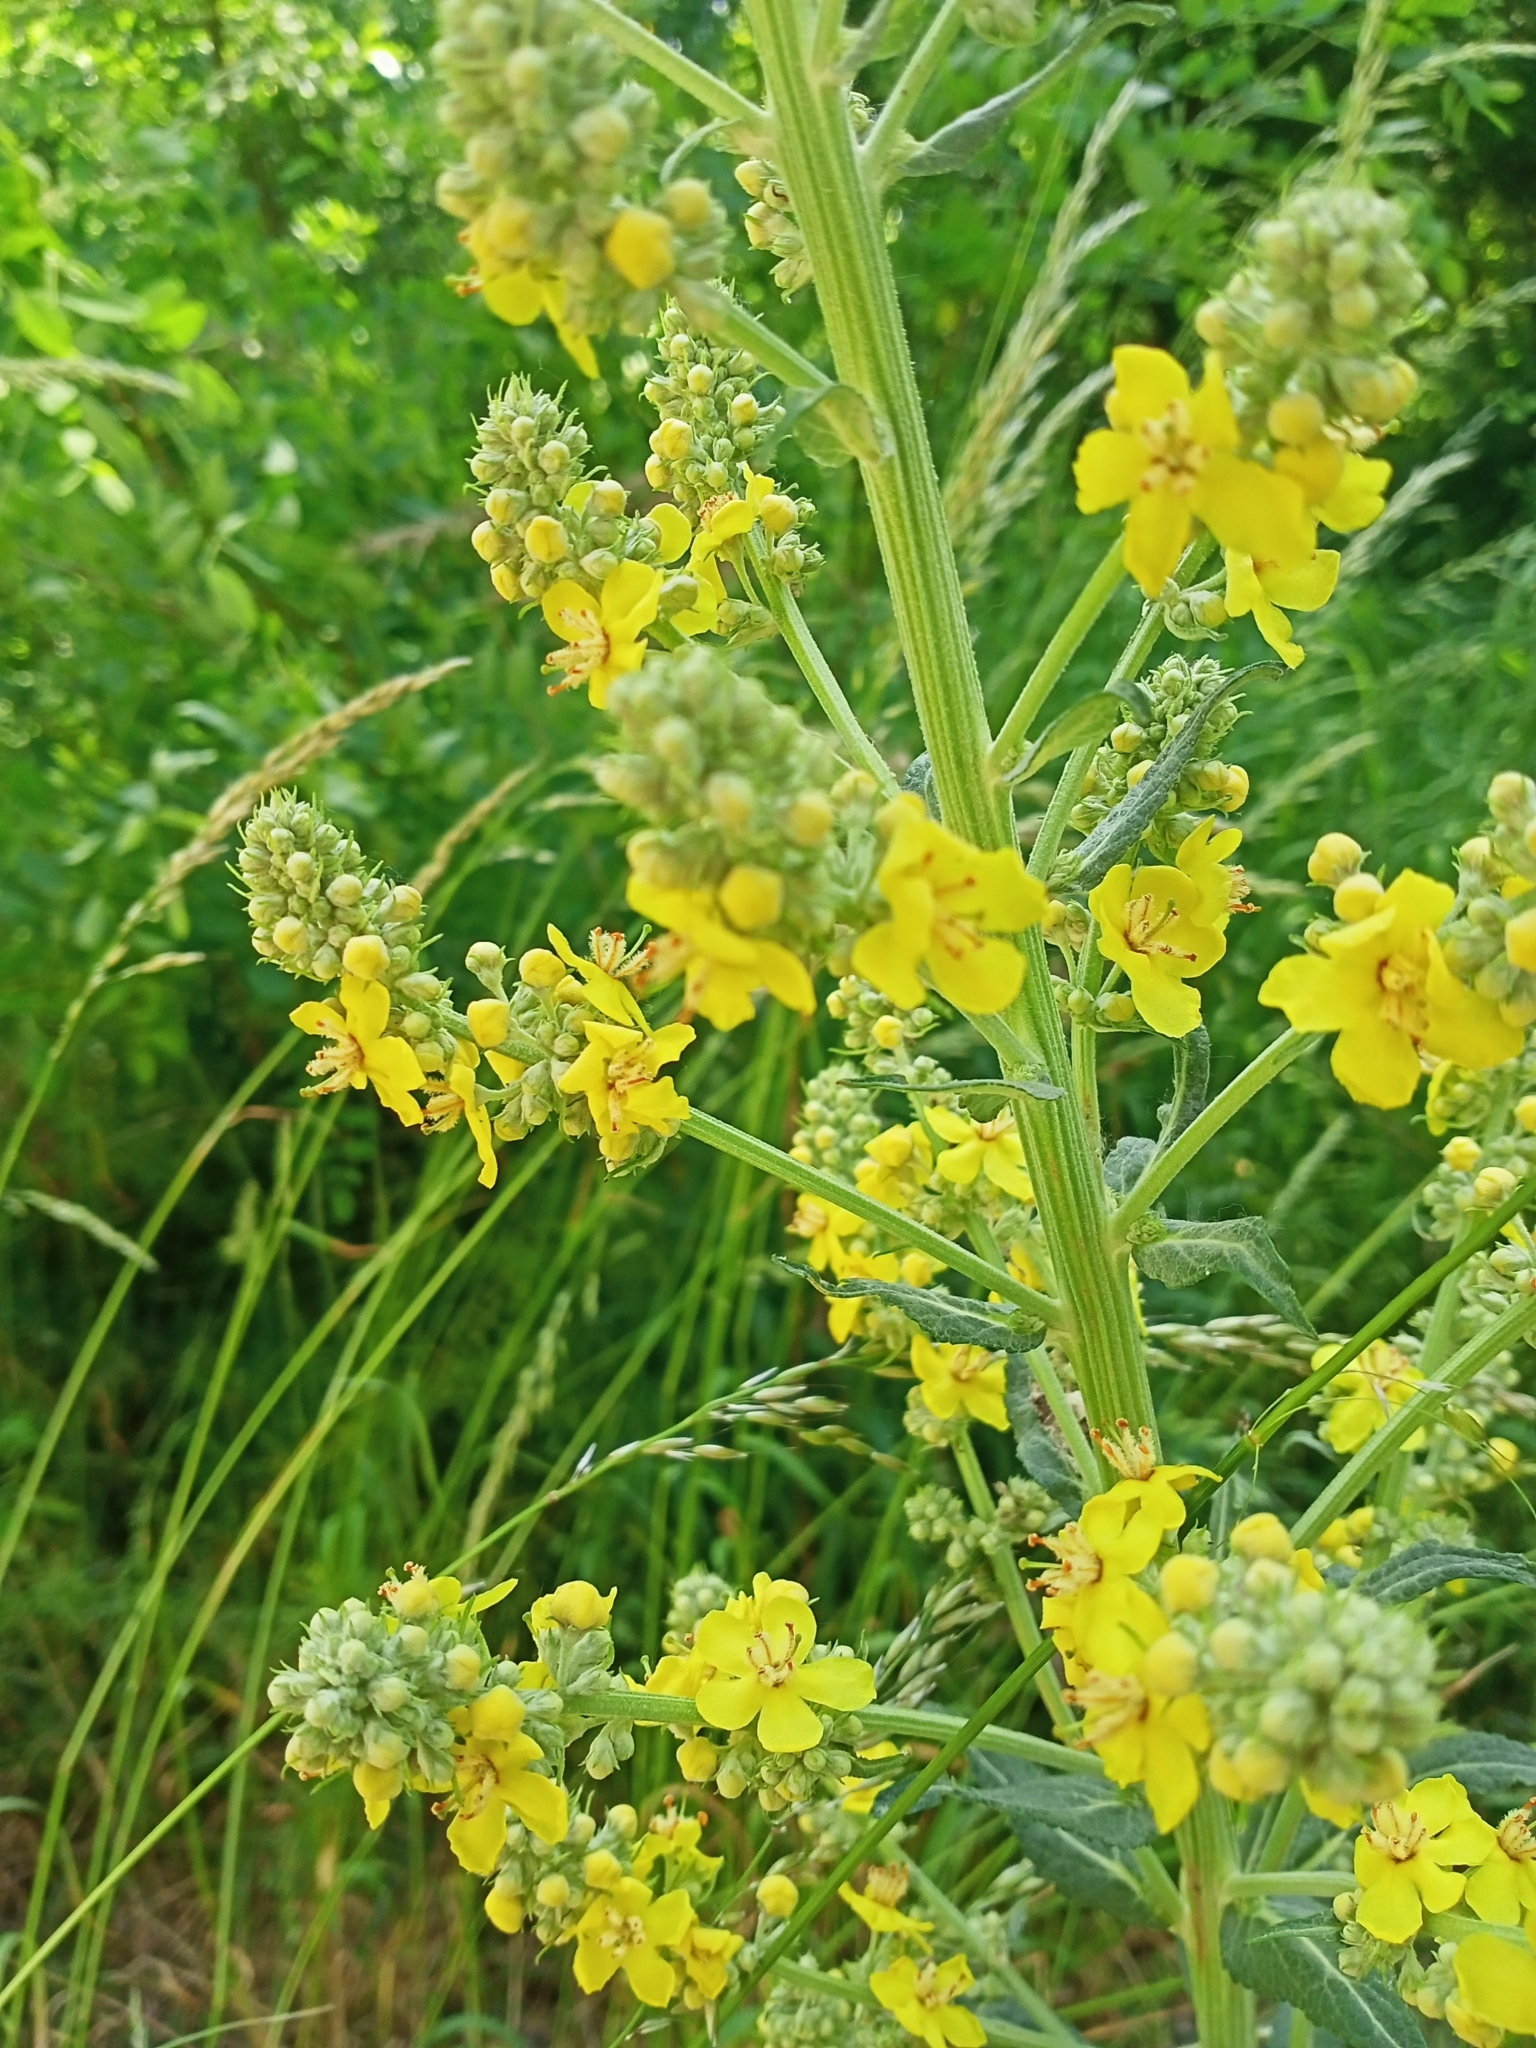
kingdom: Plantae
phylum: Tracheophyta
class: Magnoliopsida
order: Lamiales
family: Scrophulariaceae
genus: Verbascum
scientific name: Verbascum lychnitis
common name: White mullein
